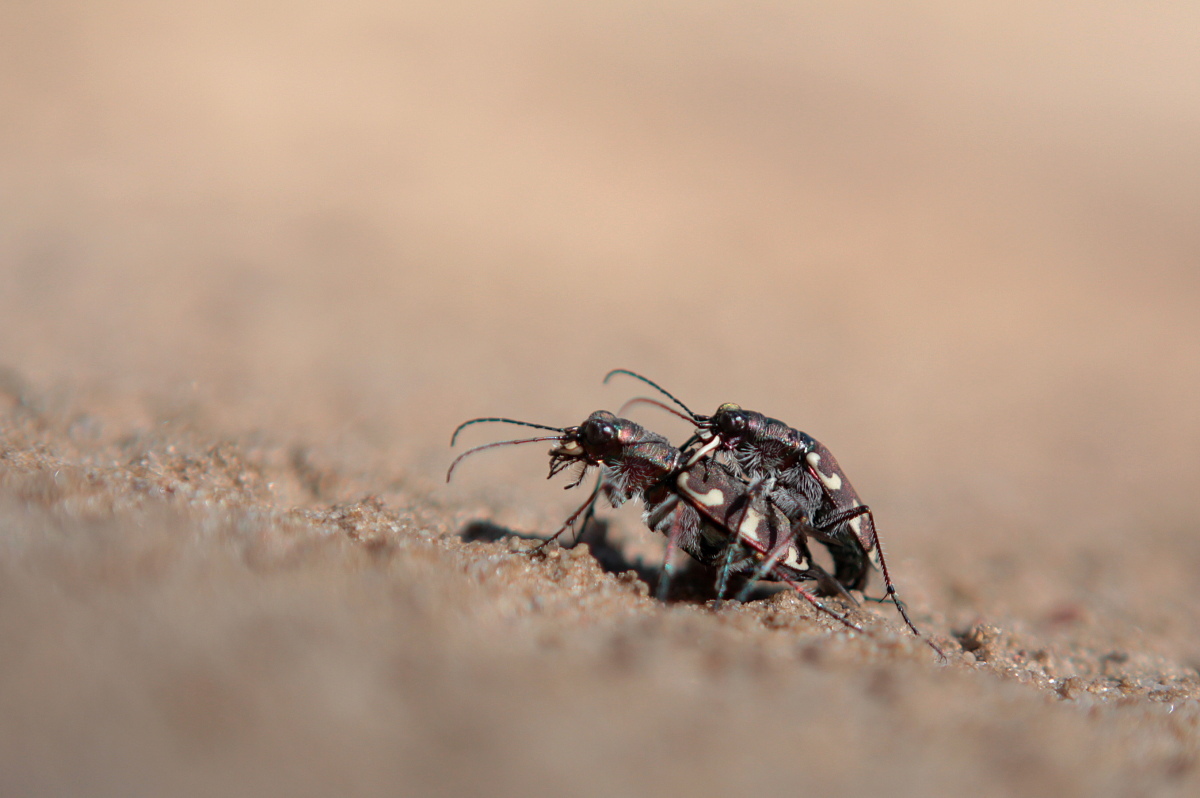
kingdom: Animalia
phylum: Arthropoda
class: Insecta
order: Coleoptera
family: Carabidae
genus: Cicindela
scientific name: Cicindela hybrida
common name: Northern dune tiger beetle
